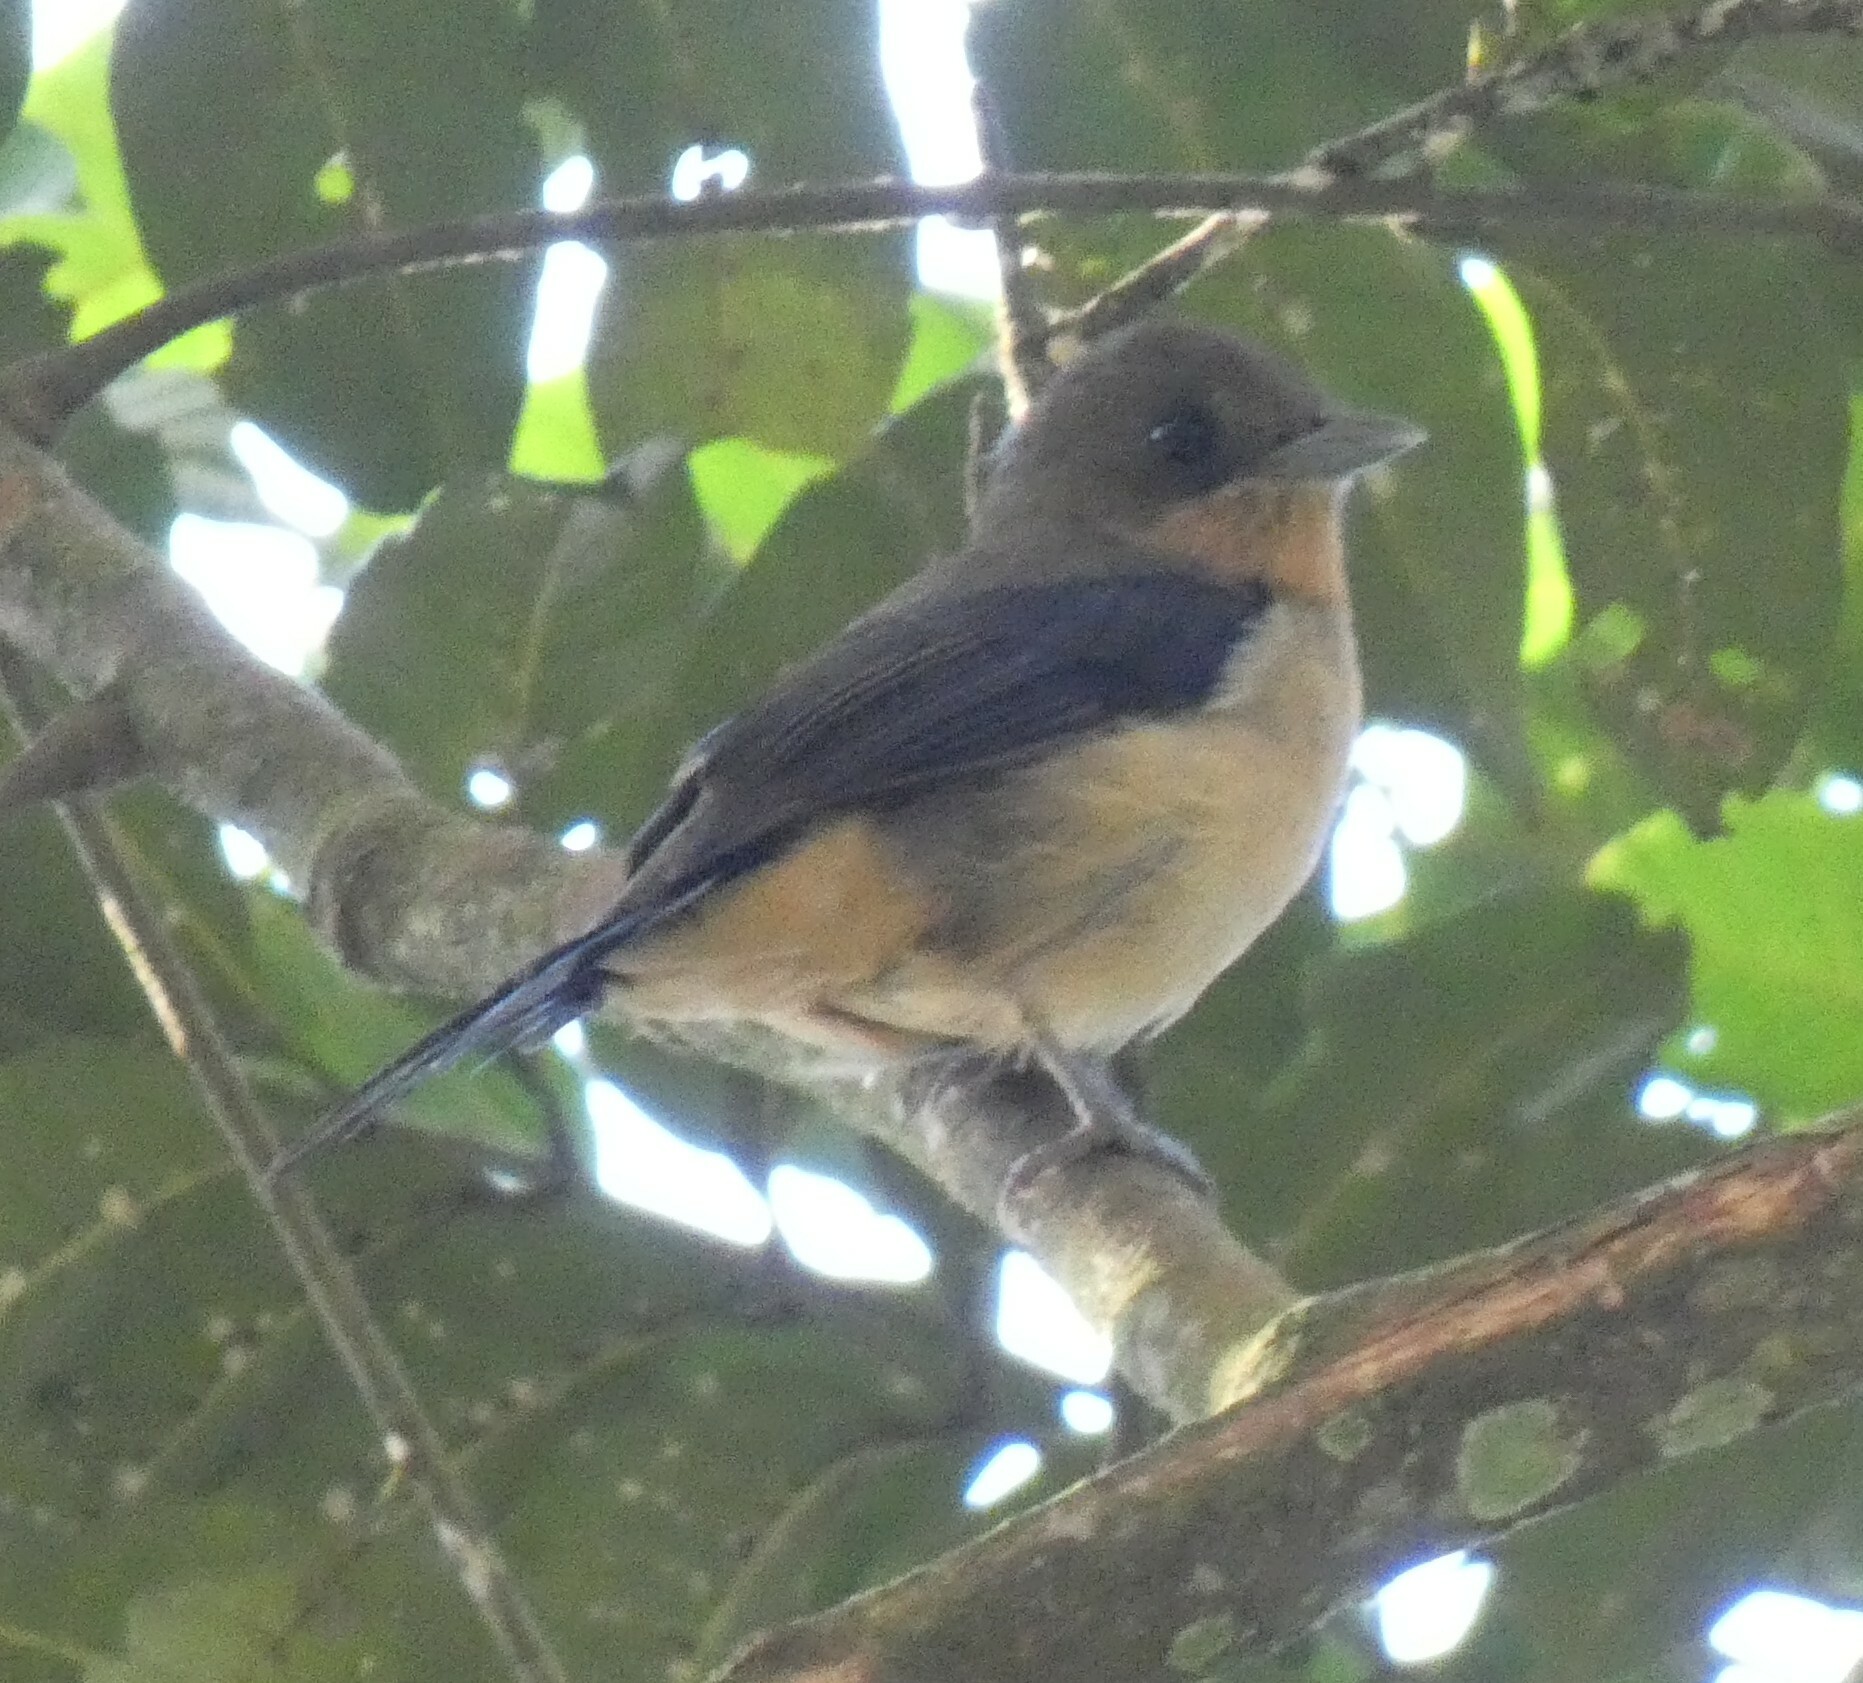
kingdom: Animalia
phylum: Chordata
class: Aves
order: Passeriformes
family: Thraupidae
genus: Trichothraupis
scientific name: Trichothraupis melanops
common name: Black-goggled tanager
